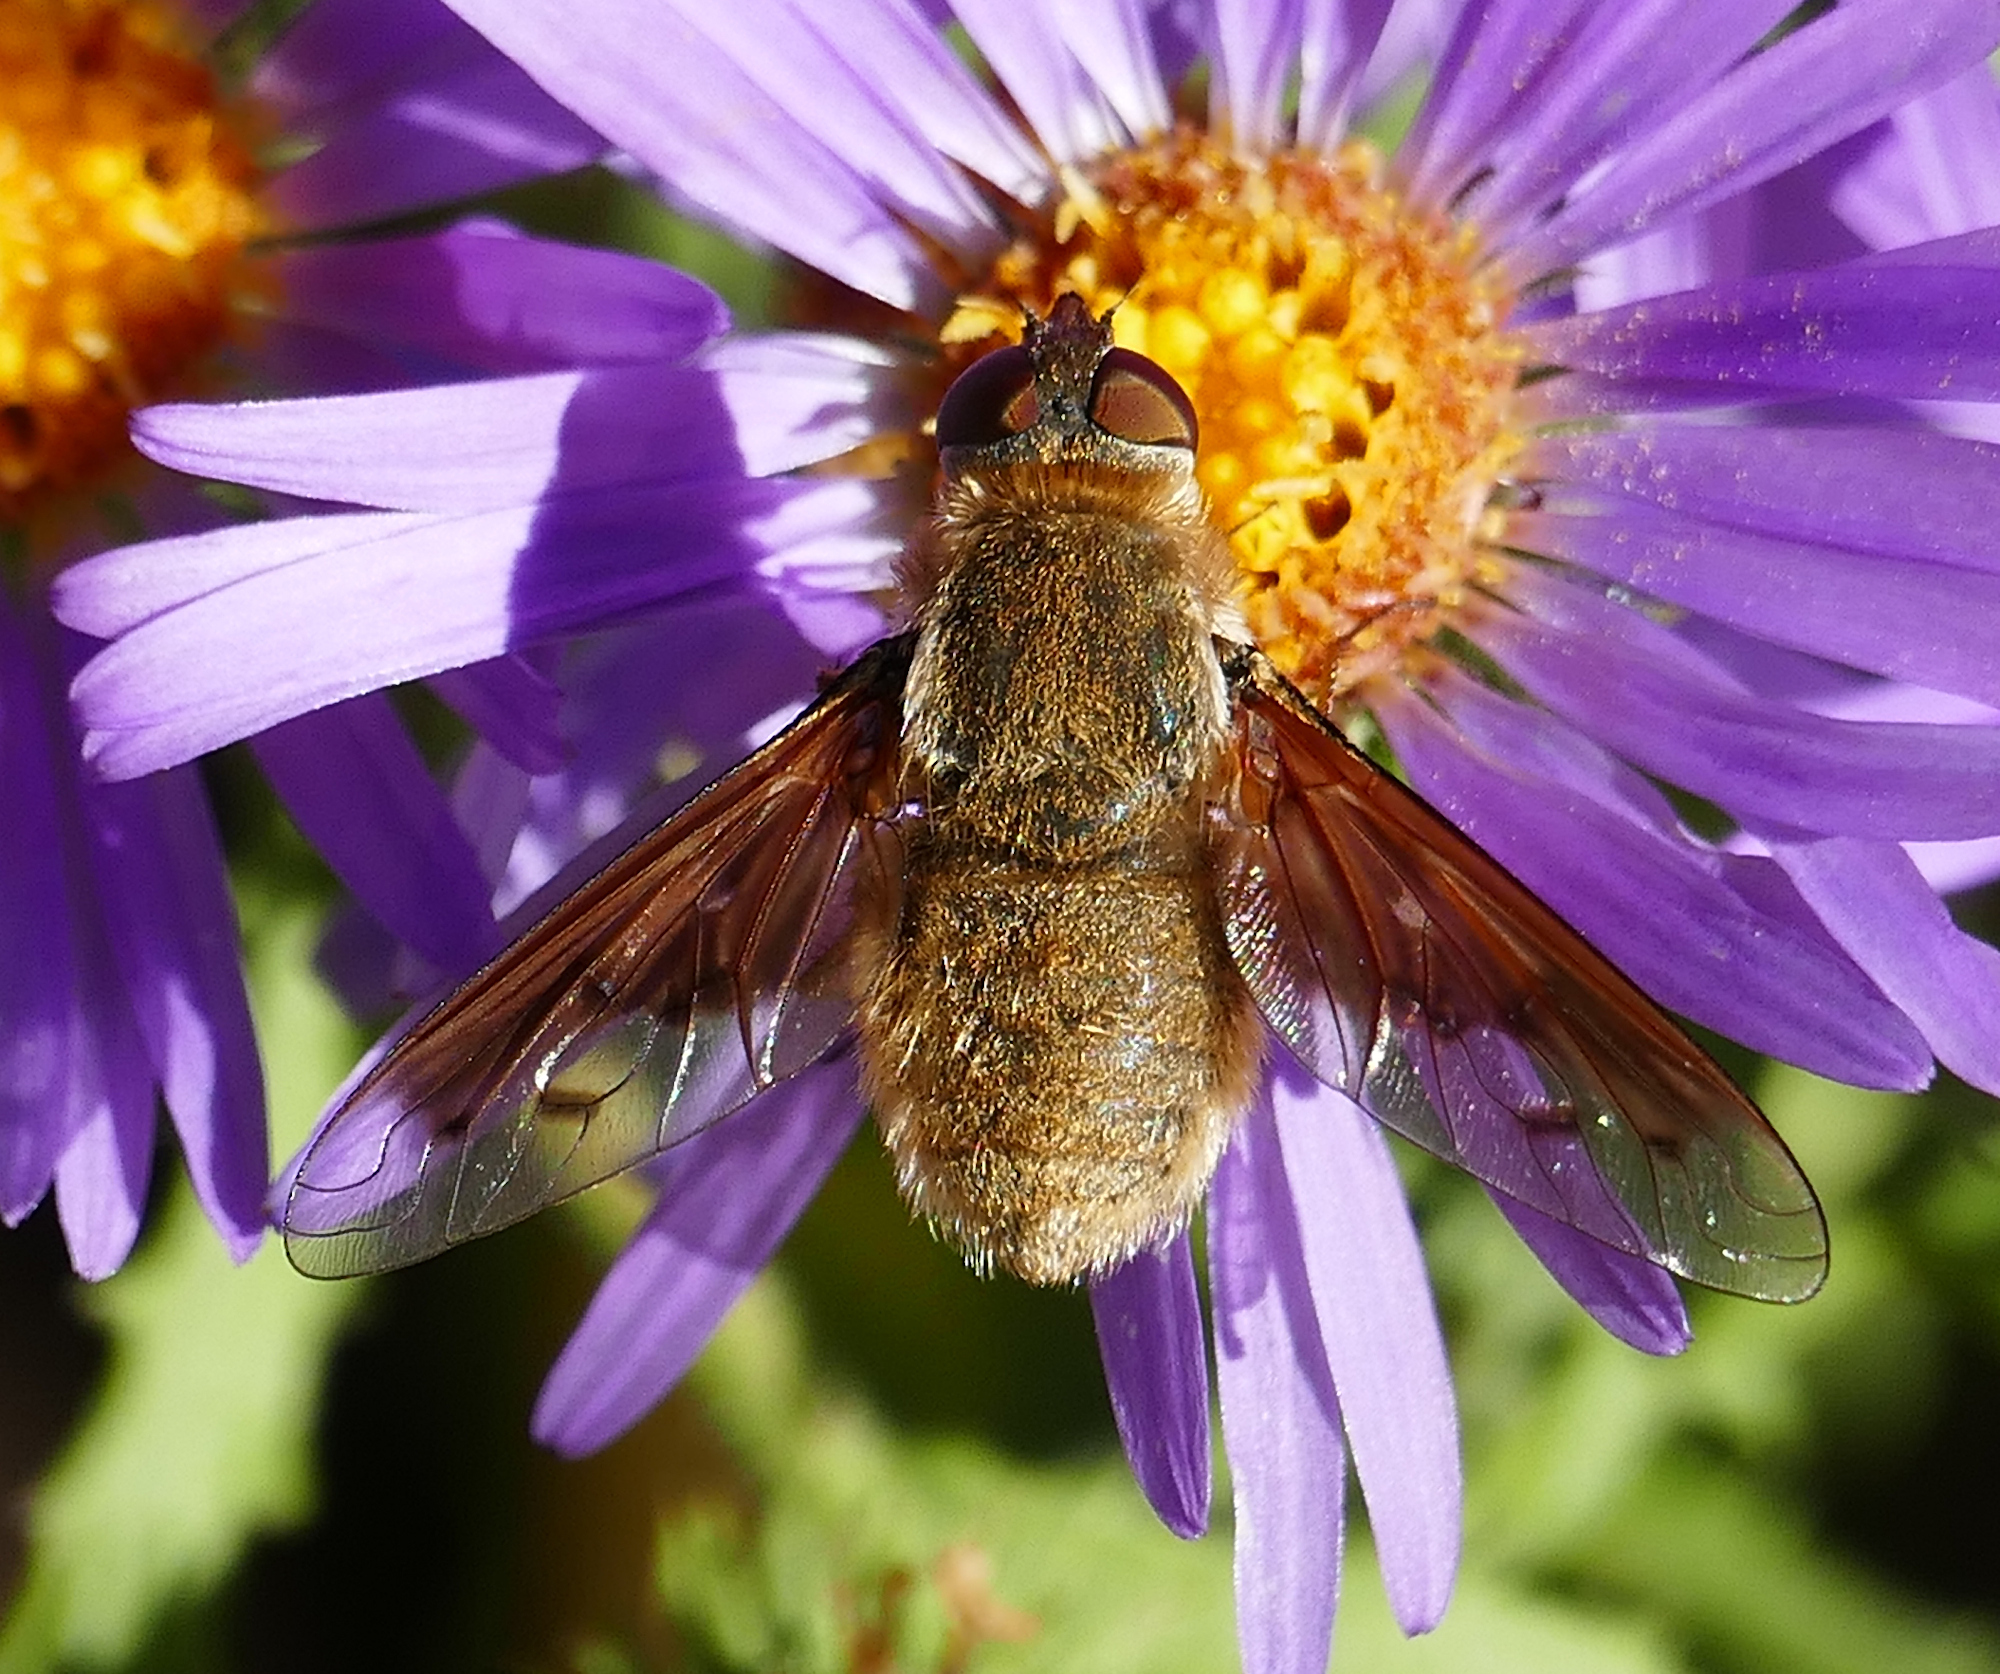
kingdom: Animalia
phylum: Arthropoda
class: Insecta
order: Diptera
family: Bombyliidae
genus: Chrysanthrax
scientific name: Chrysanthrax edititius
